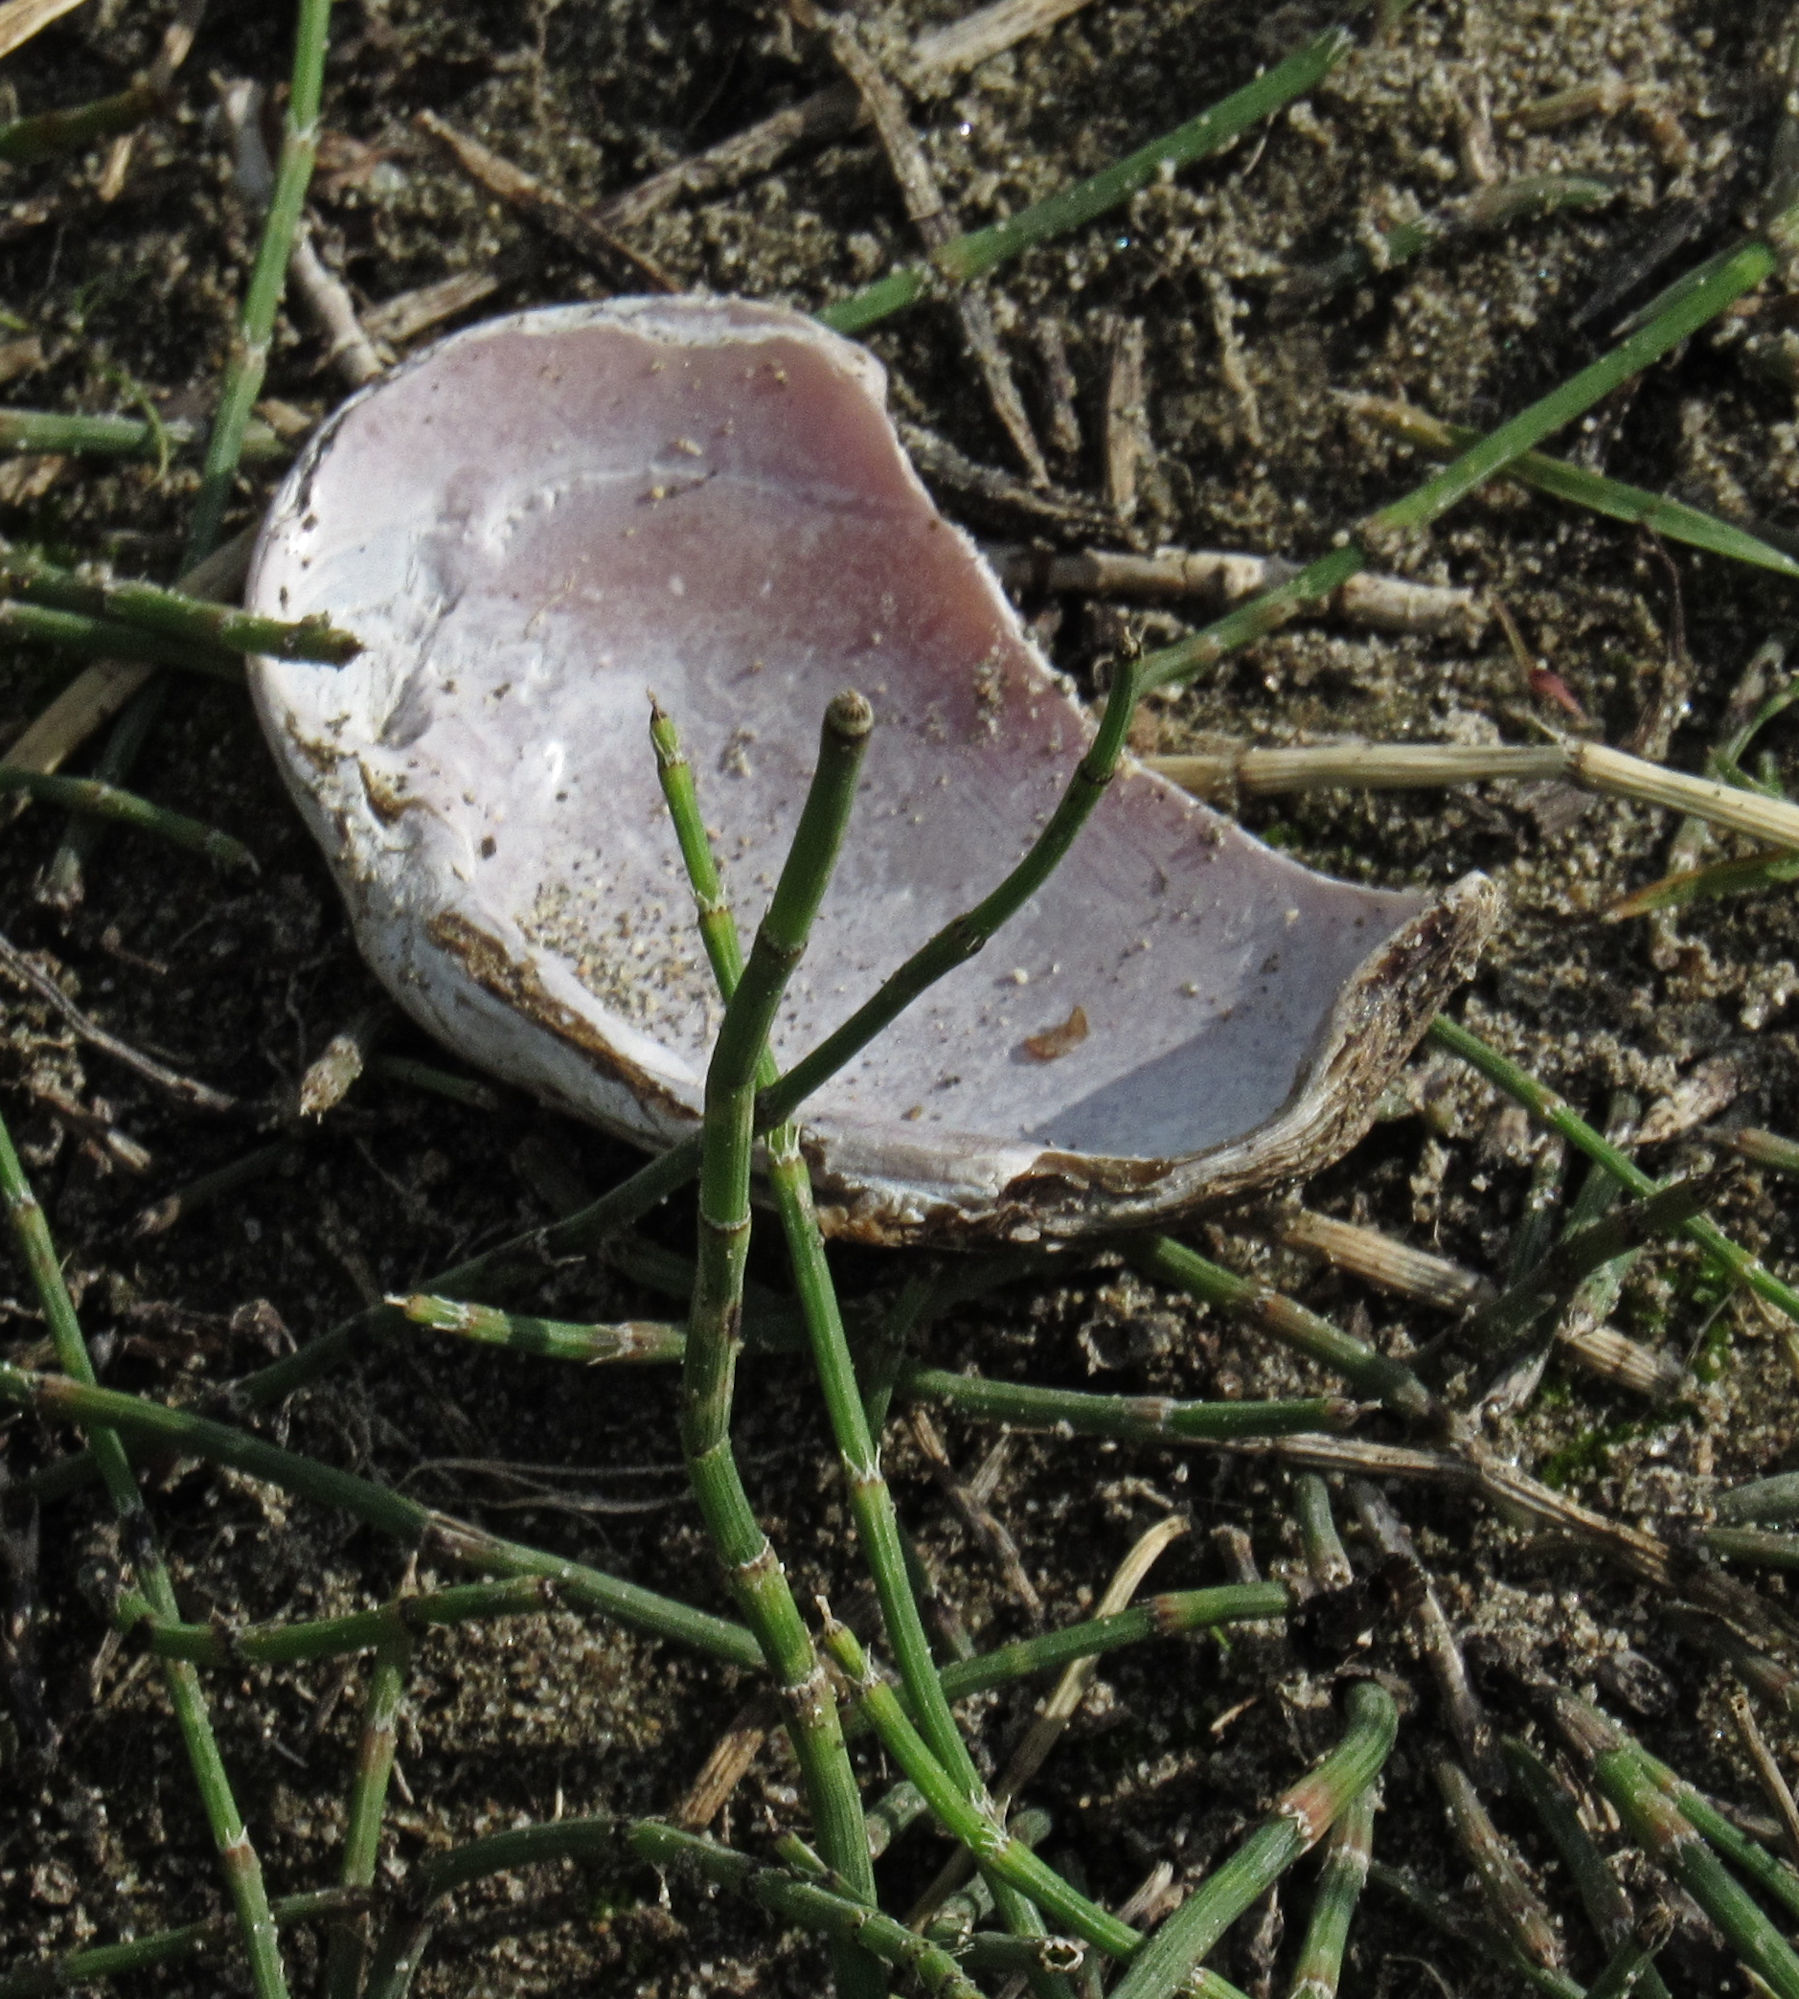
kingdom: Animalia
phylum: Mollusca
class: Bivalvia
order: Unionida
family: Margaritiferidae
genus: Margaritifera
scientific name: Margaritifera falcata
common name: Western pearlshell
